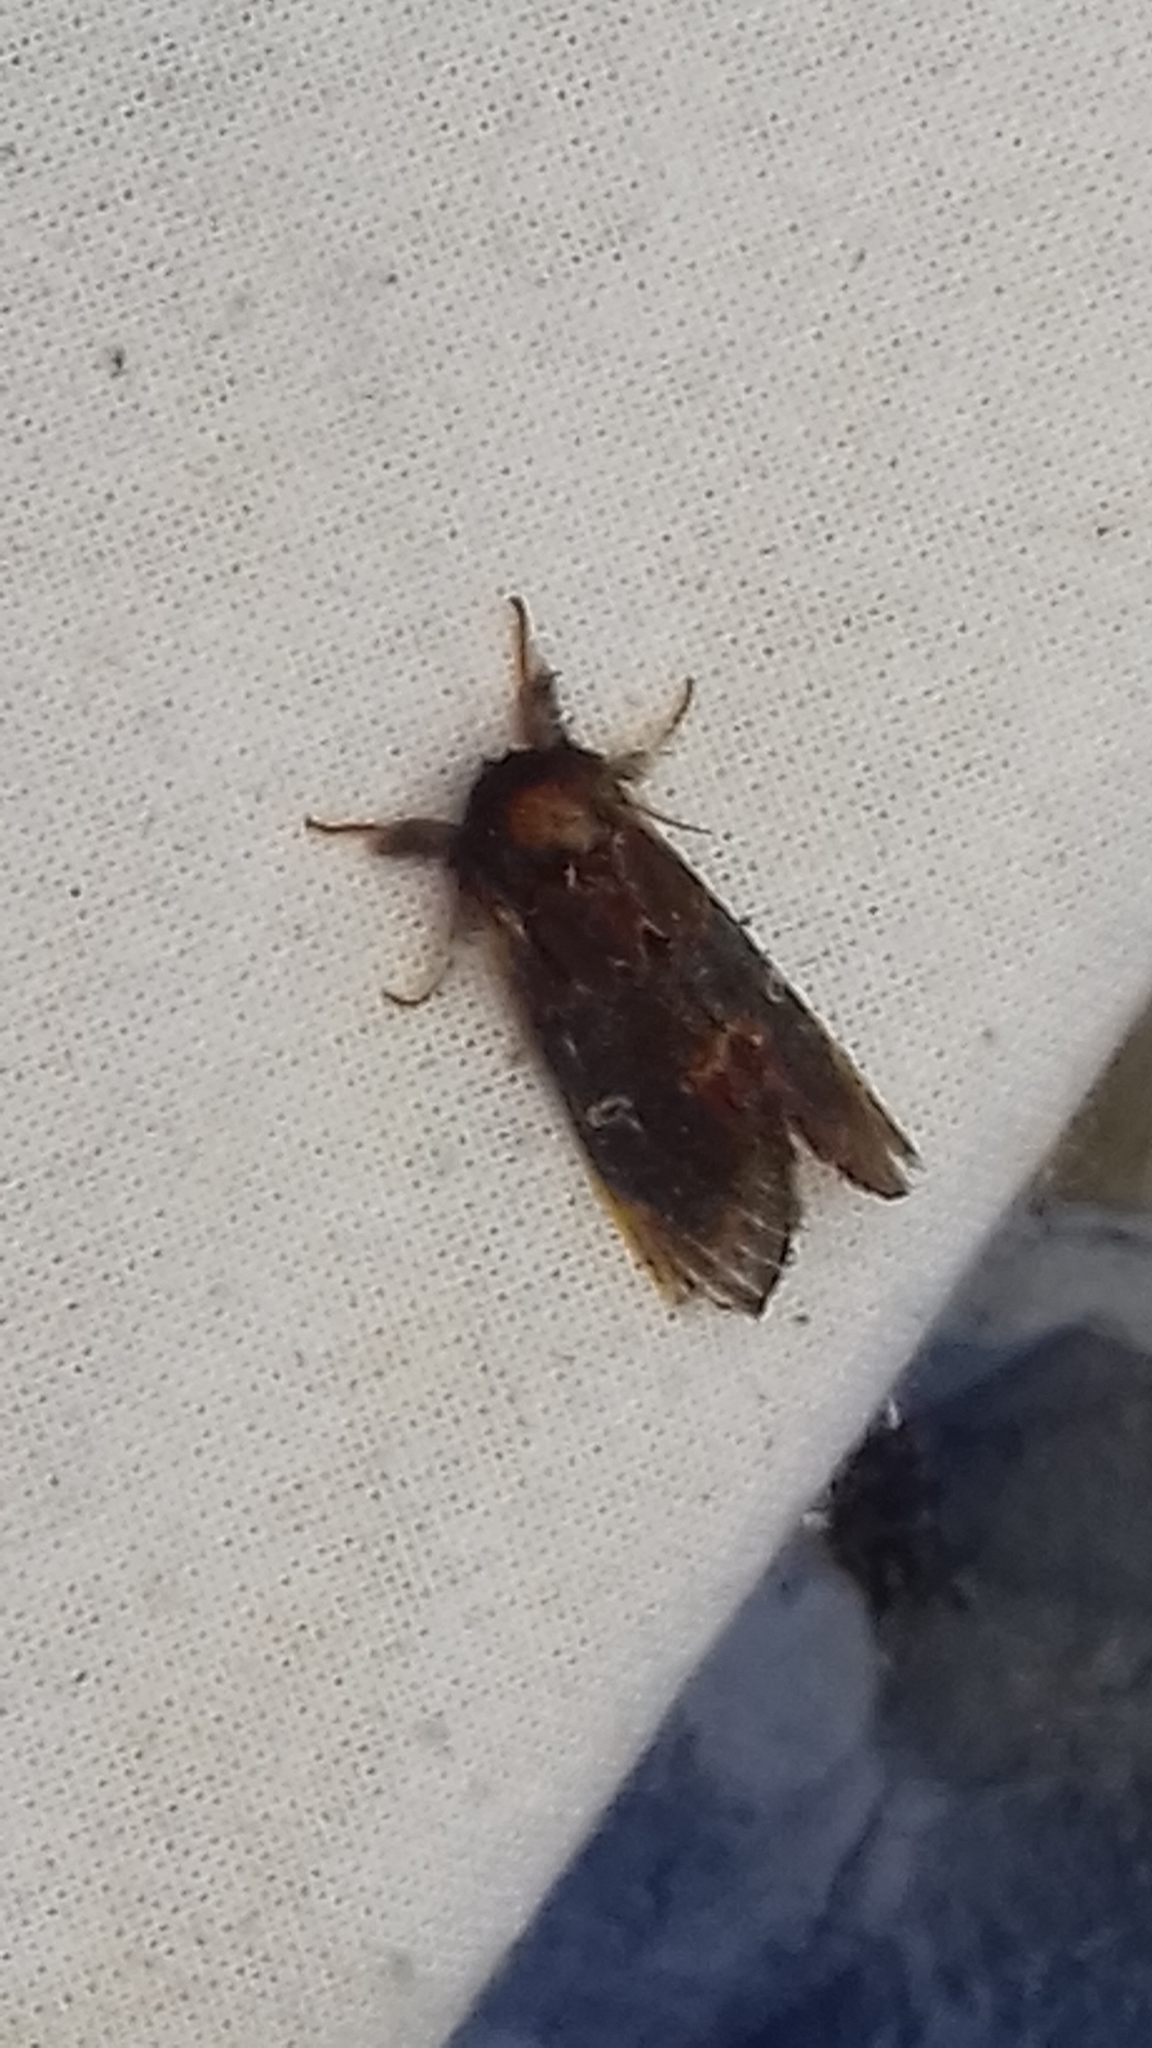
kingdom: Animalia
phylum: Arthropoda
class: Insecta
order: Lepidoptera
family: Notodontidae
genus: Notodonta
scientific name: Notodonta dromedarius
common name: Iron prominent
